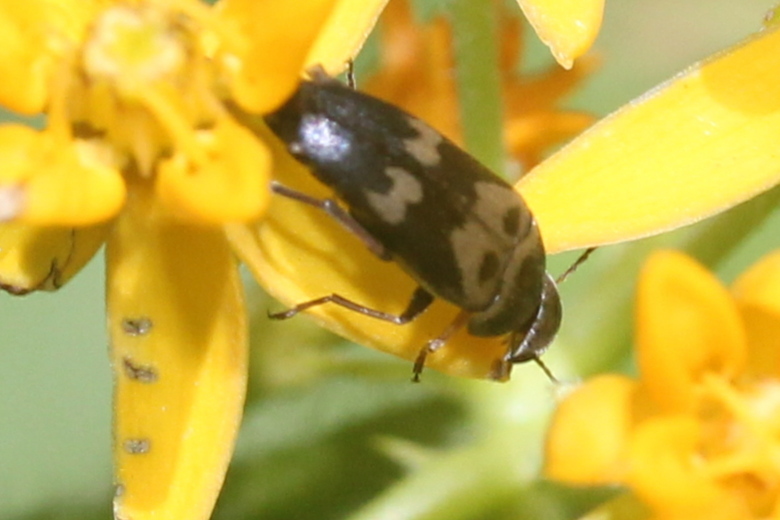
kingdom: Animalia
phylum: Arthropoda
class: Insecta
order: Coleoptera
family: Mordellidae
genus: Glipa
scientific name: Glipa oculata
